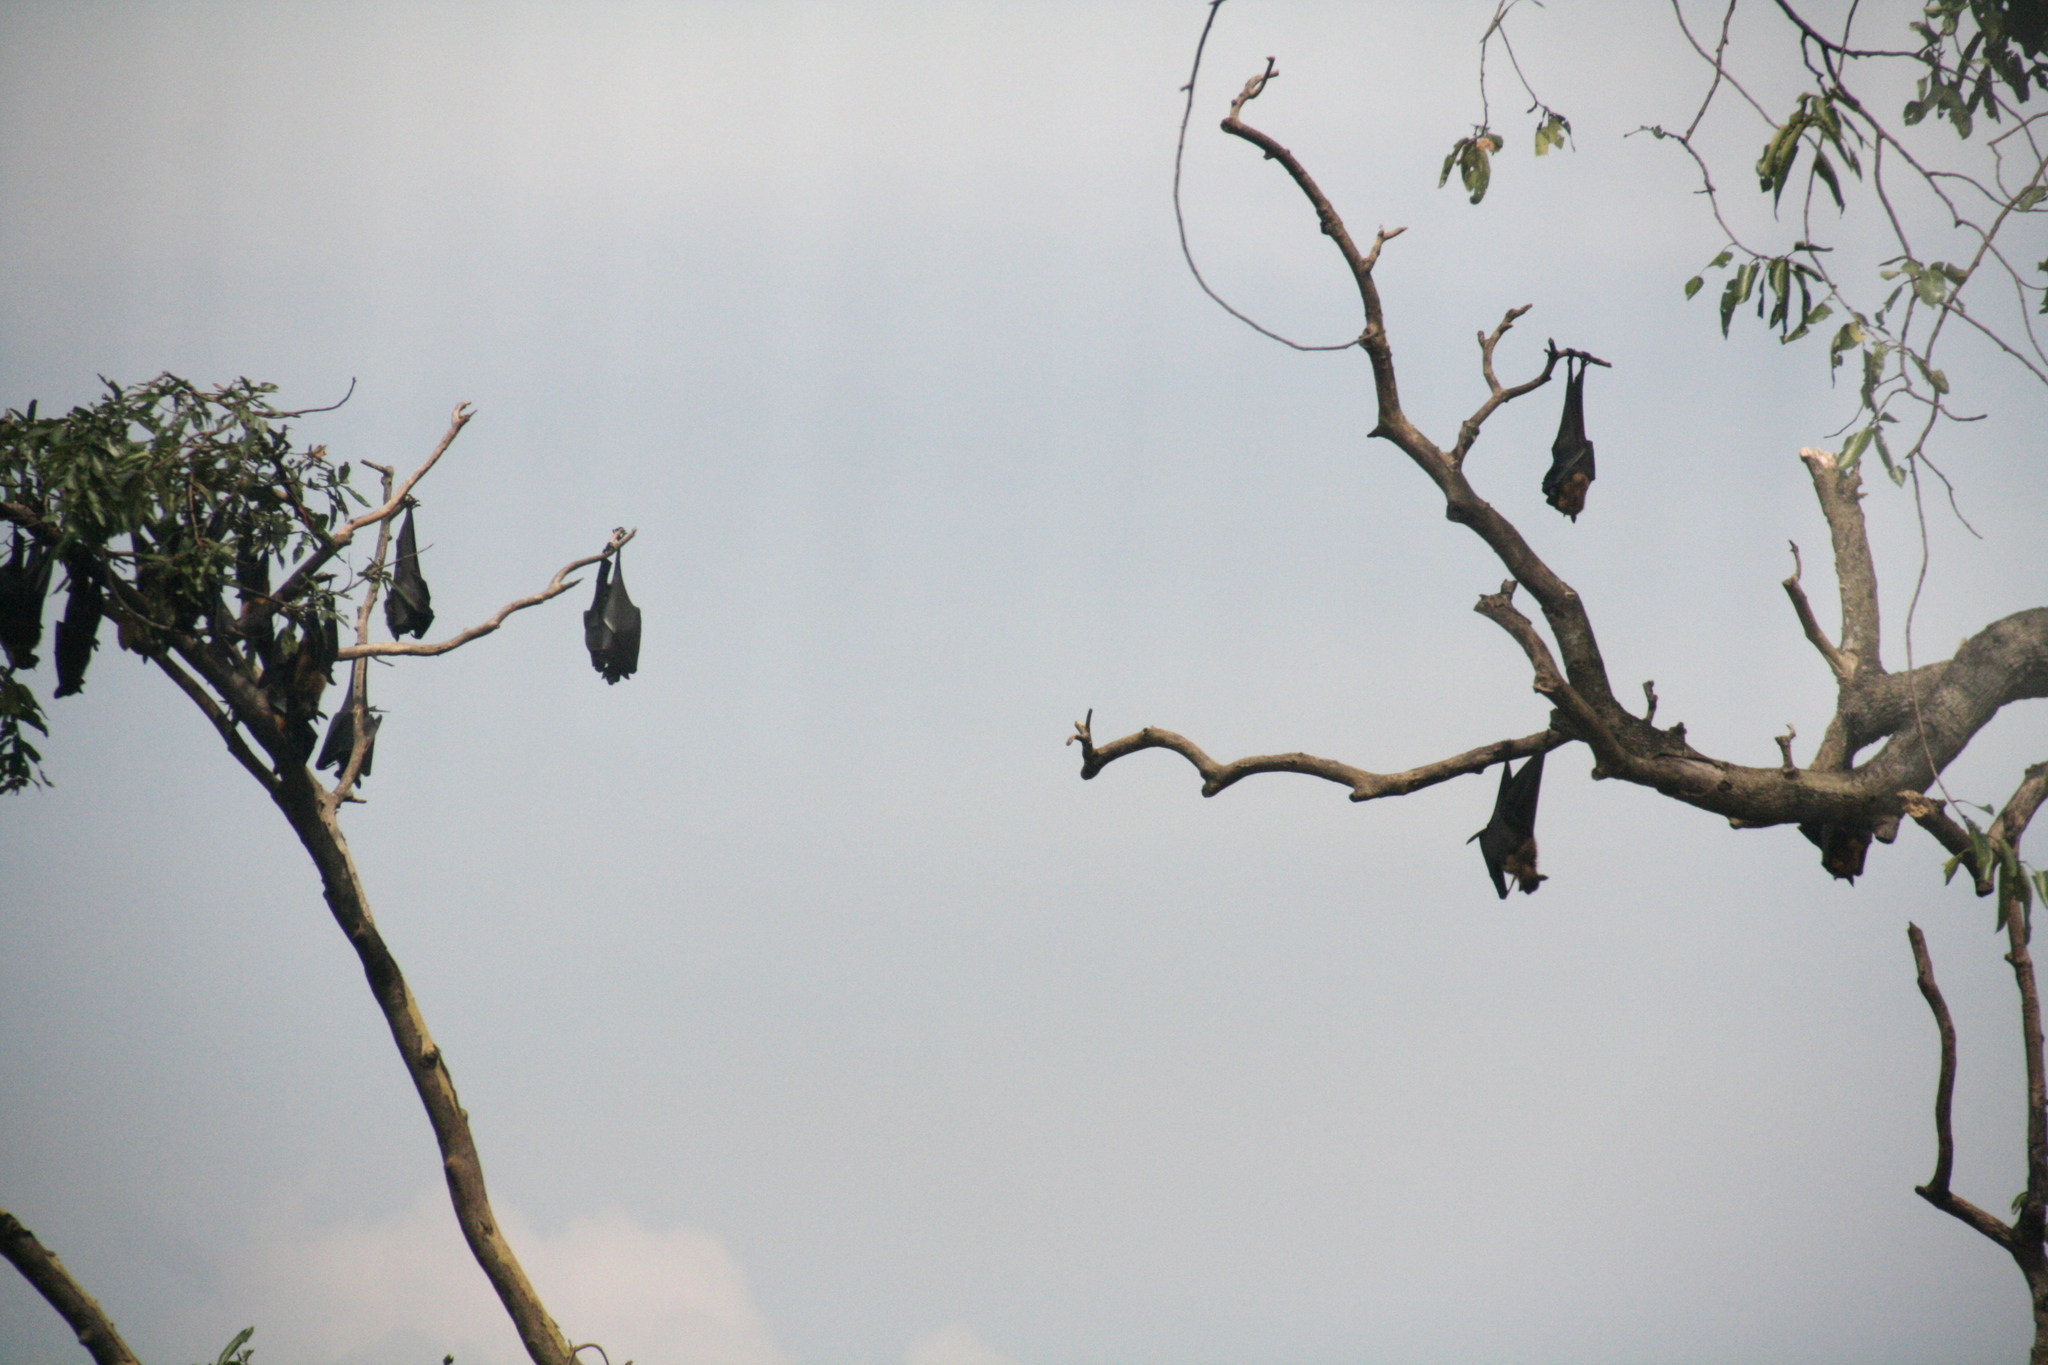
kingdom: Animalia
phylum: Chordata
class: Mammalia
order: Chiroptera
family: Pteropodidae
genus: Pteropus
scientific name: Pteropus vampyrus
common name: Large flying fox
